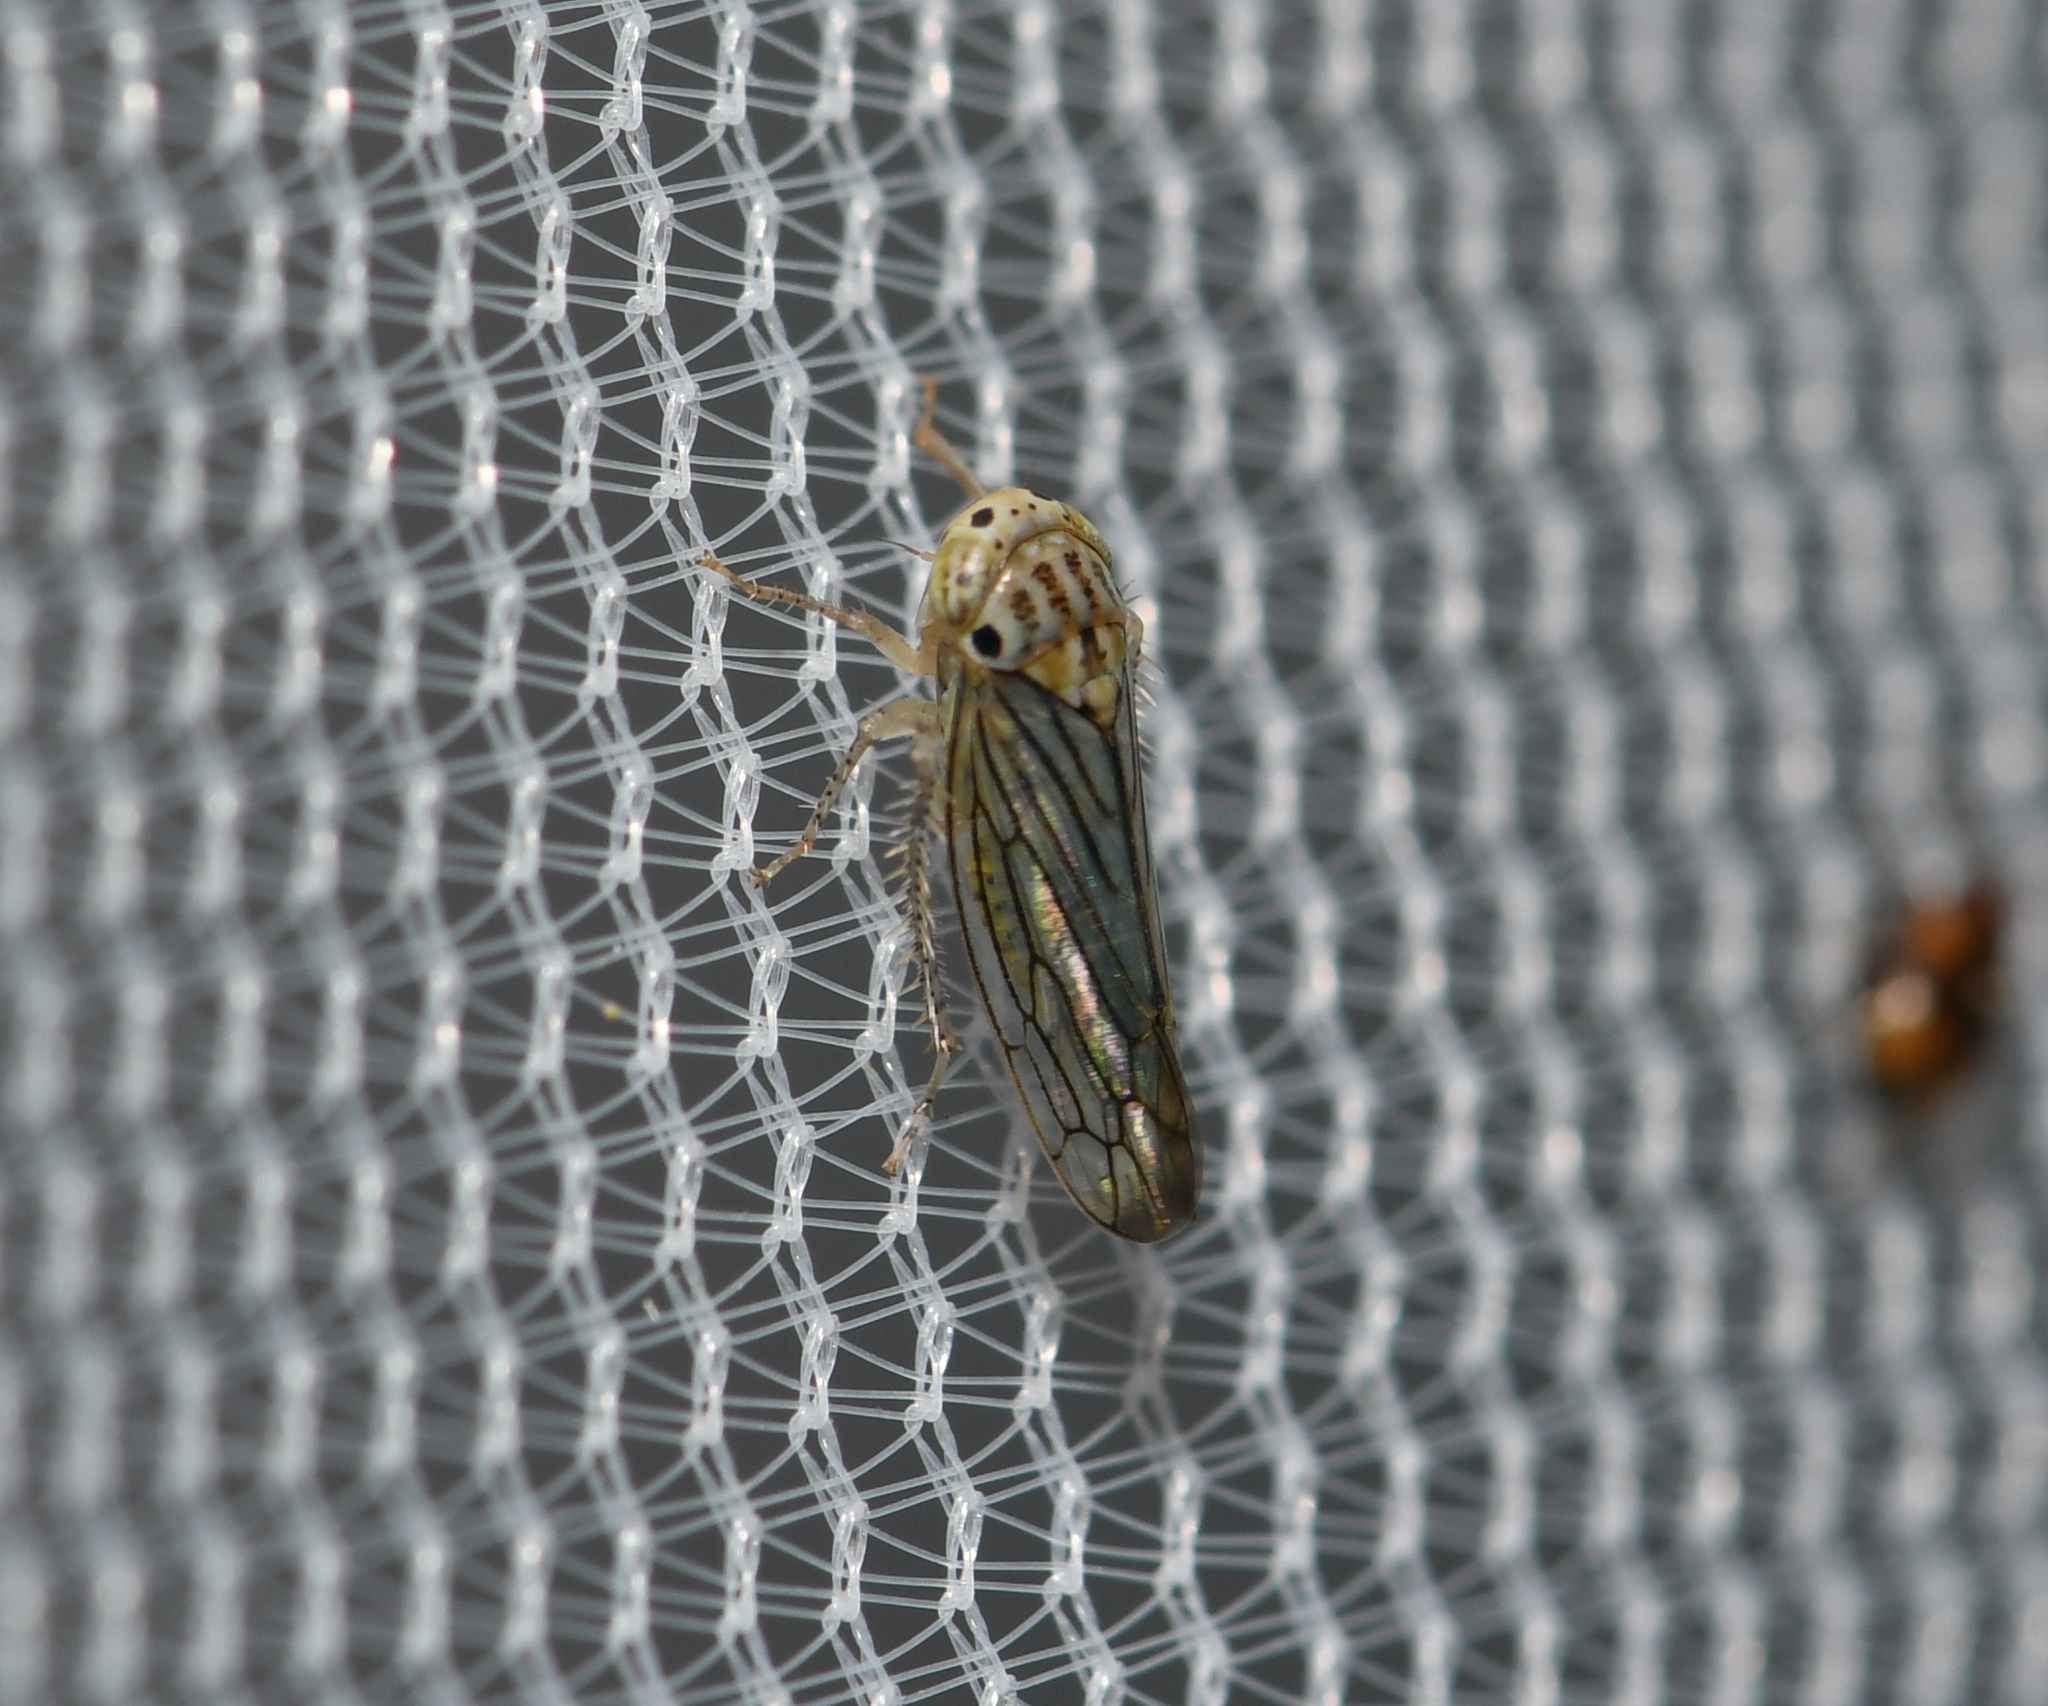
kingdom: Animalia
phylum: Arthropoda
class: Insecta
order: Hemiptera
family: Cicadellidae
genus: Ollarianus
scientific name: Ollarianus armus
